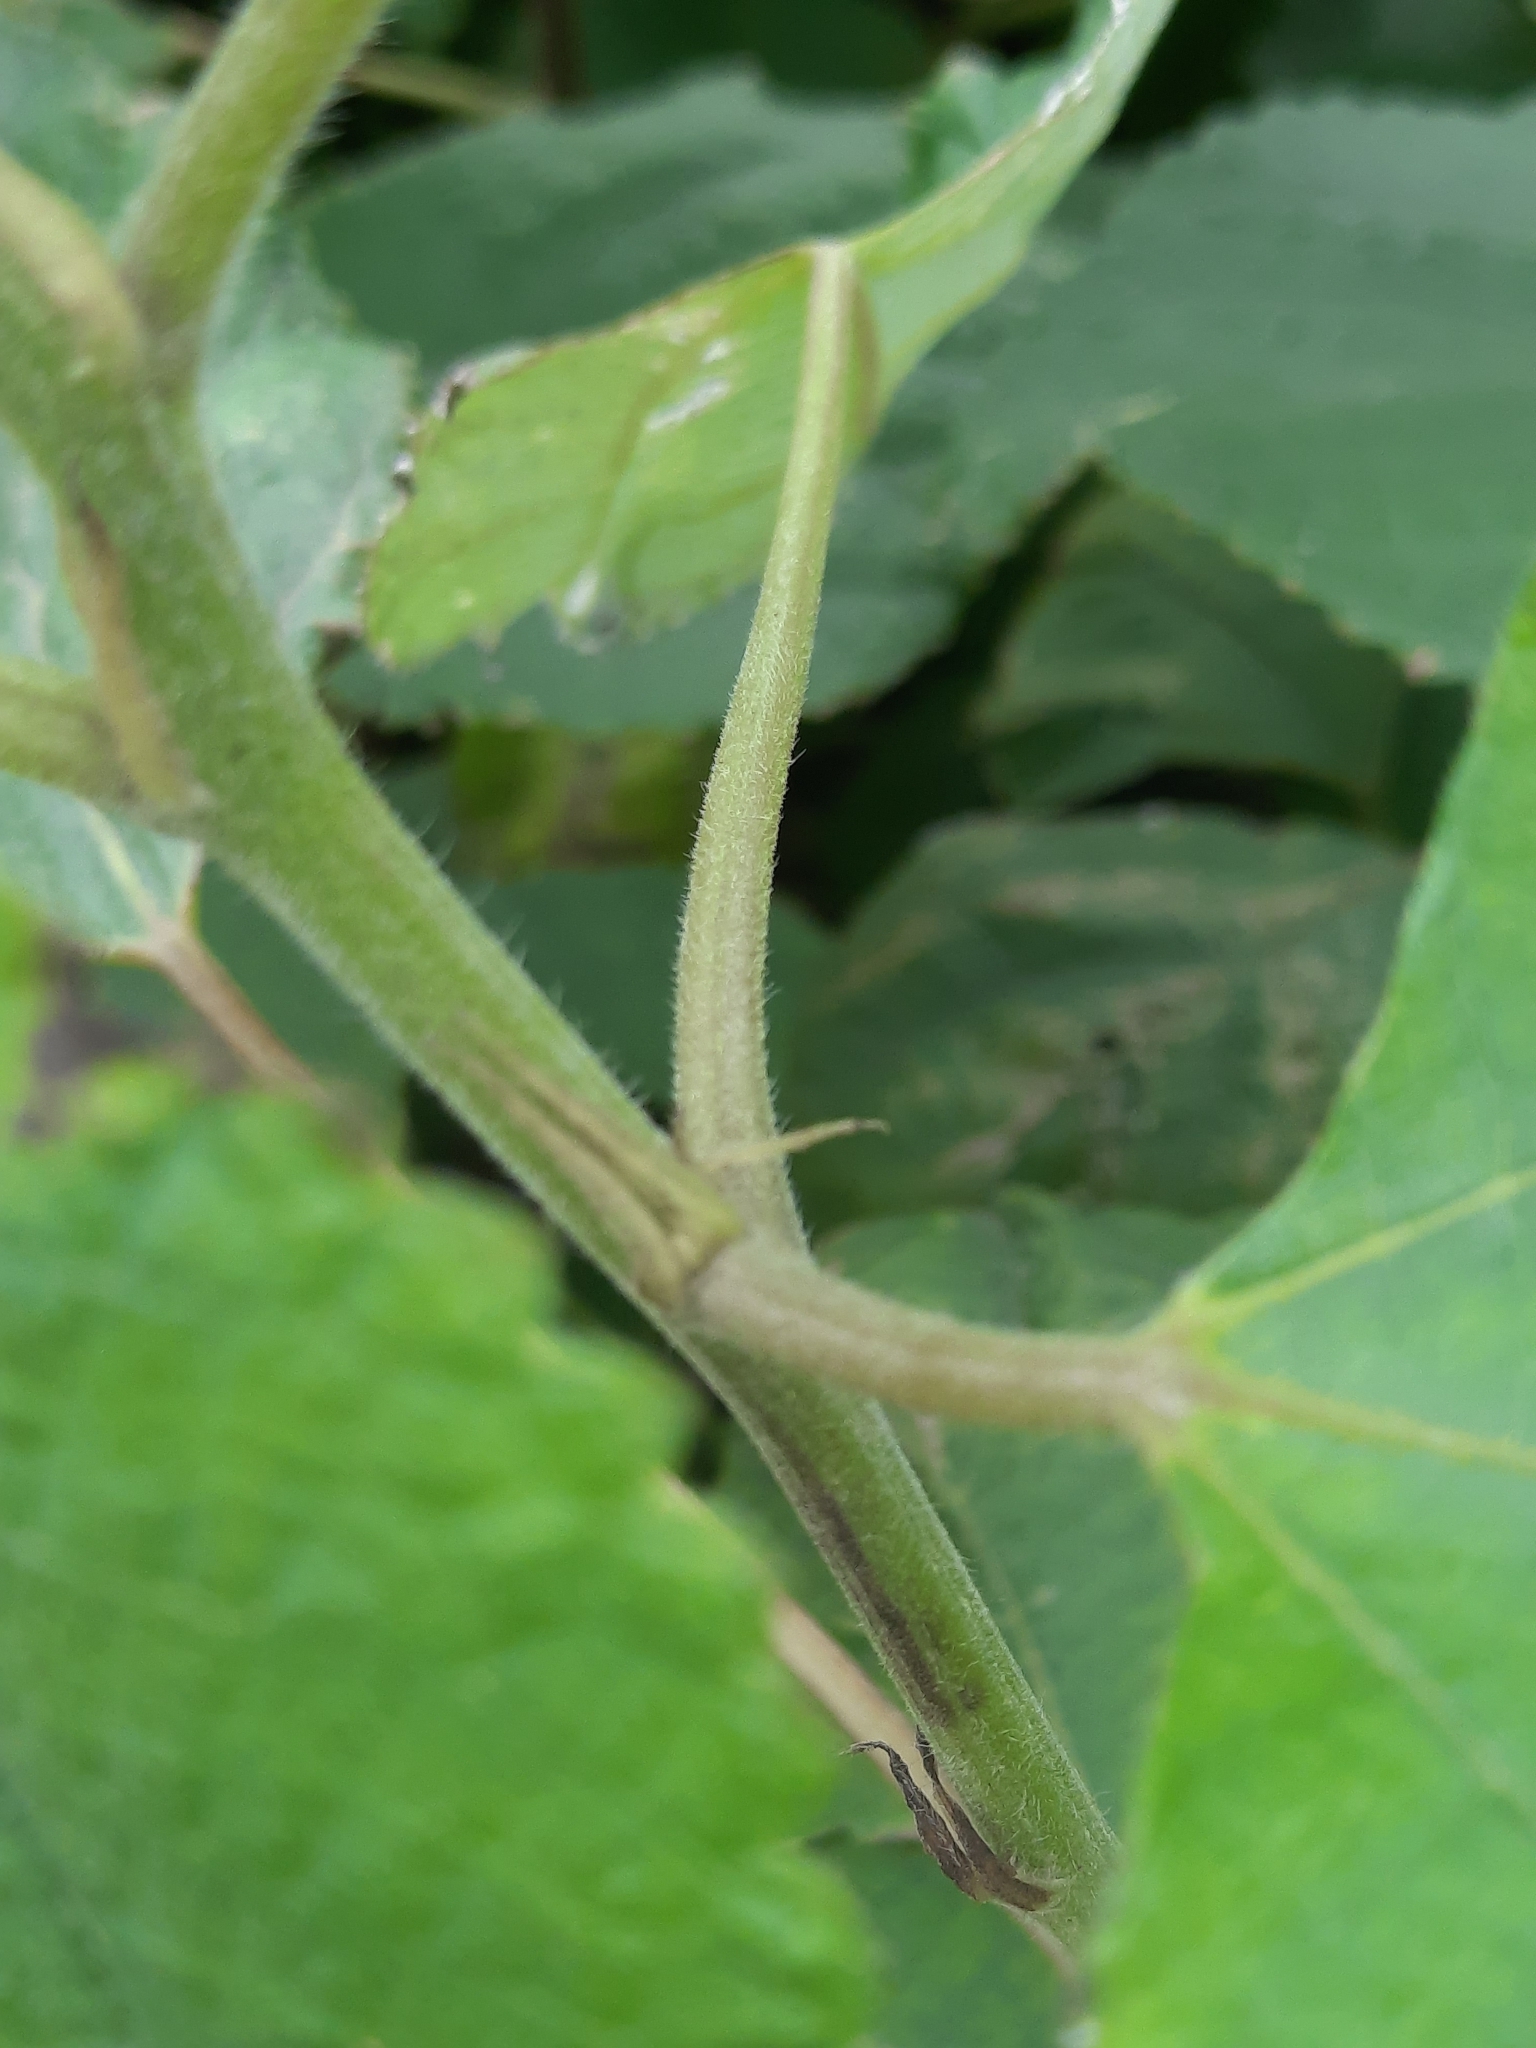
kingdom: Plantae
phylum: Tracheophyta
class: Magnoliopsida
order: Rosales
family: Urticaceae
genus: Boehmeria
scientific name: Boehmeria nivea
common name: Ramie chinese grass
